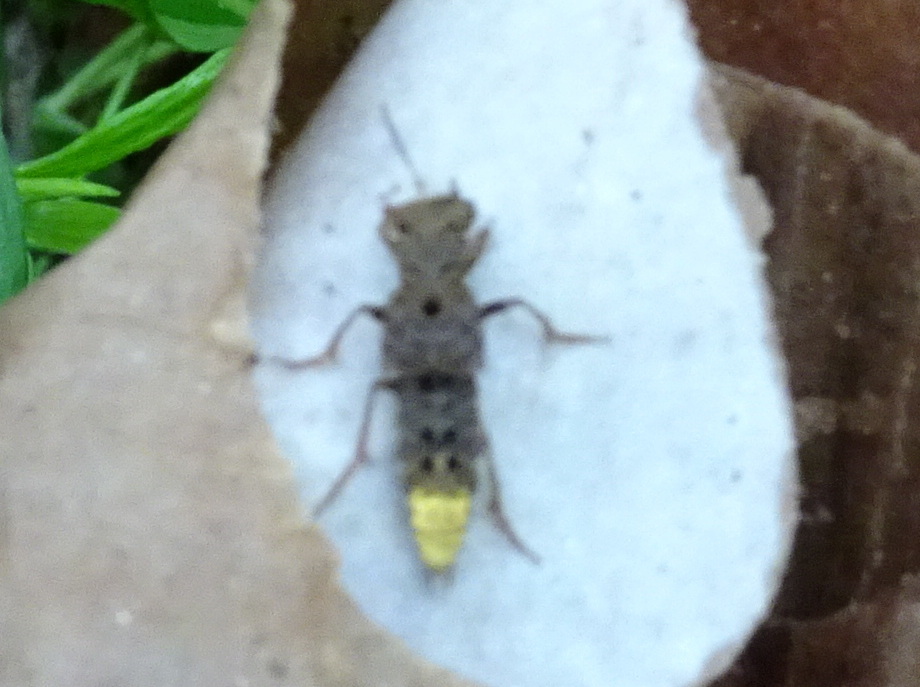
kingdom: Animalia
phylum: Arthropoda
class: Insecta
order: Coleoptera
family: Staphylinidae
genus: Ontholestes
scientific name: Ontholestes cingulatus
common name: Gold-and-brown rove beetle
